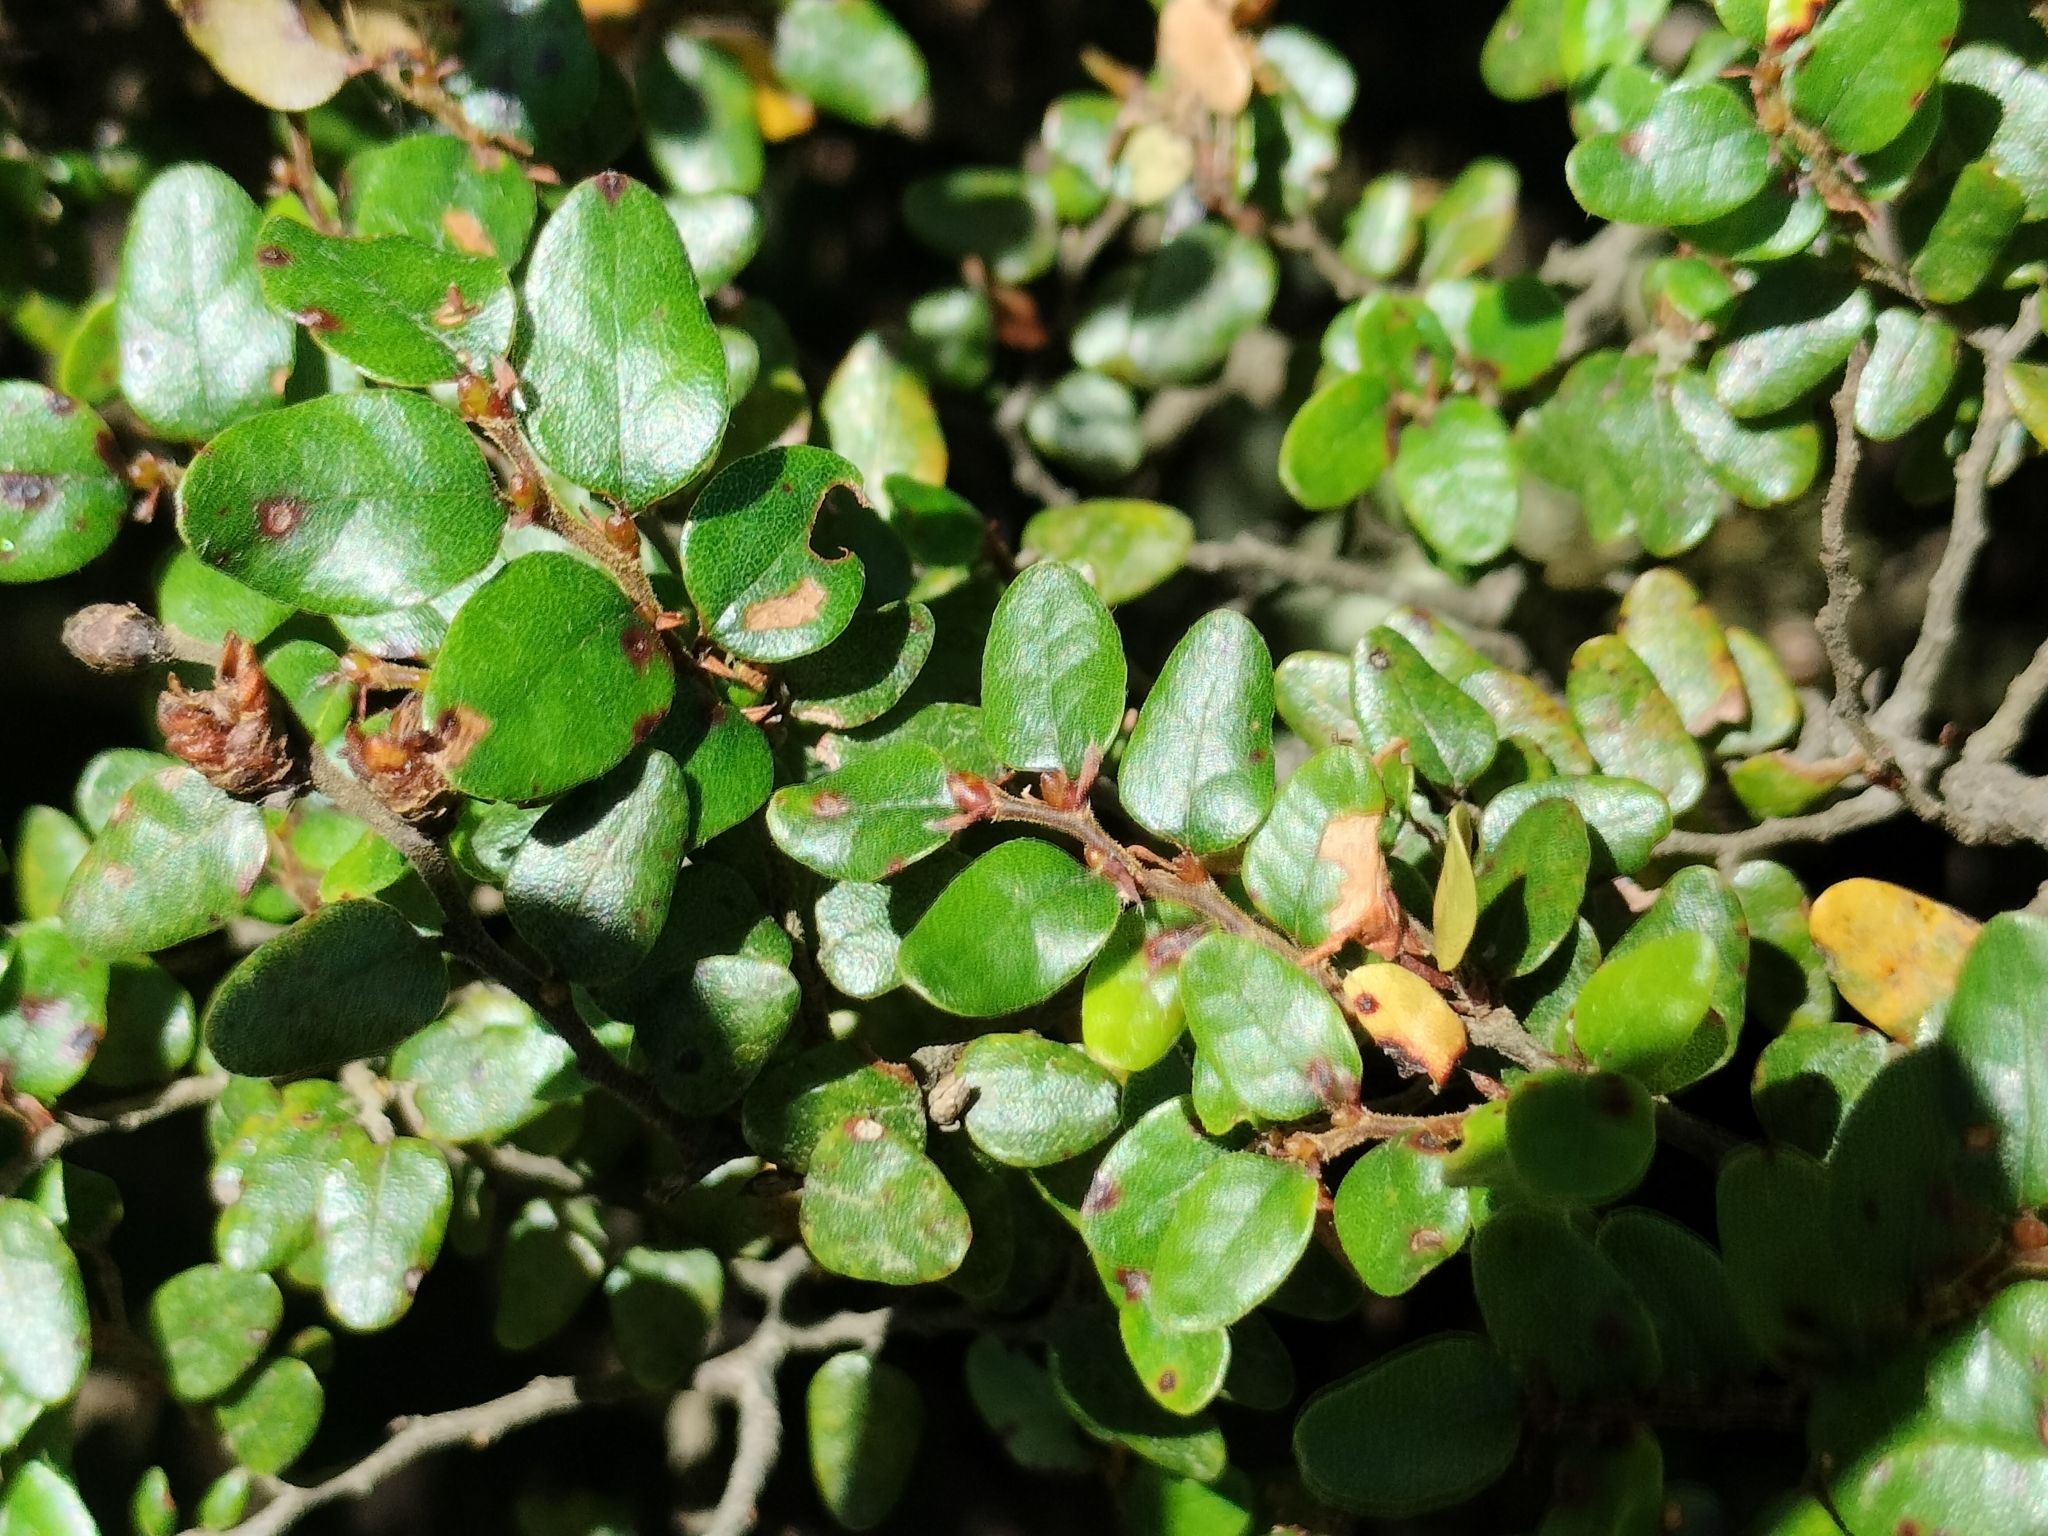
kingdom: Plantae
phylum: Tracheophyta
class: Magnoliopsida
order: Fagales
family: Nothofagaceae
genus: Nothofagus
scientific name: Nothofagus cliffortioides
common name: Mountain beech
